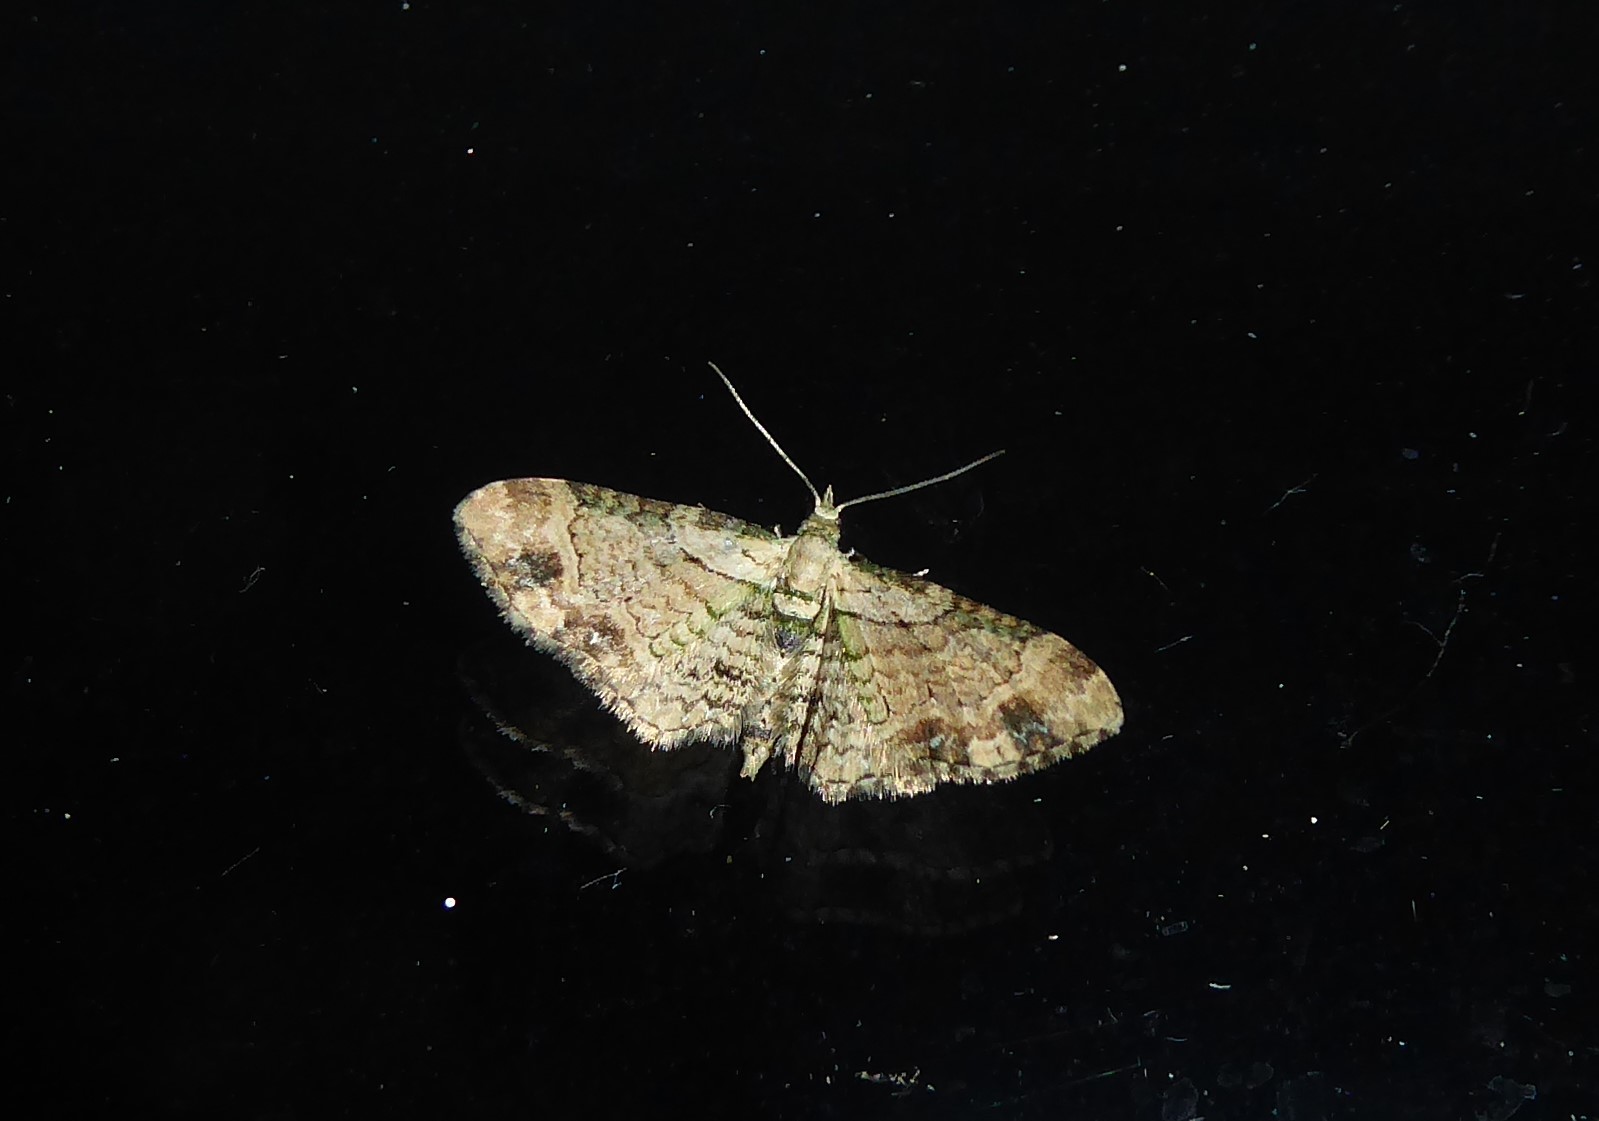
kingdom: Animalia
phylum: Arthropoda
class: Insecta
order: Lepidoptera
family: Geometridae
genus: Chloroclystis
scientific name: Chloroclystis
